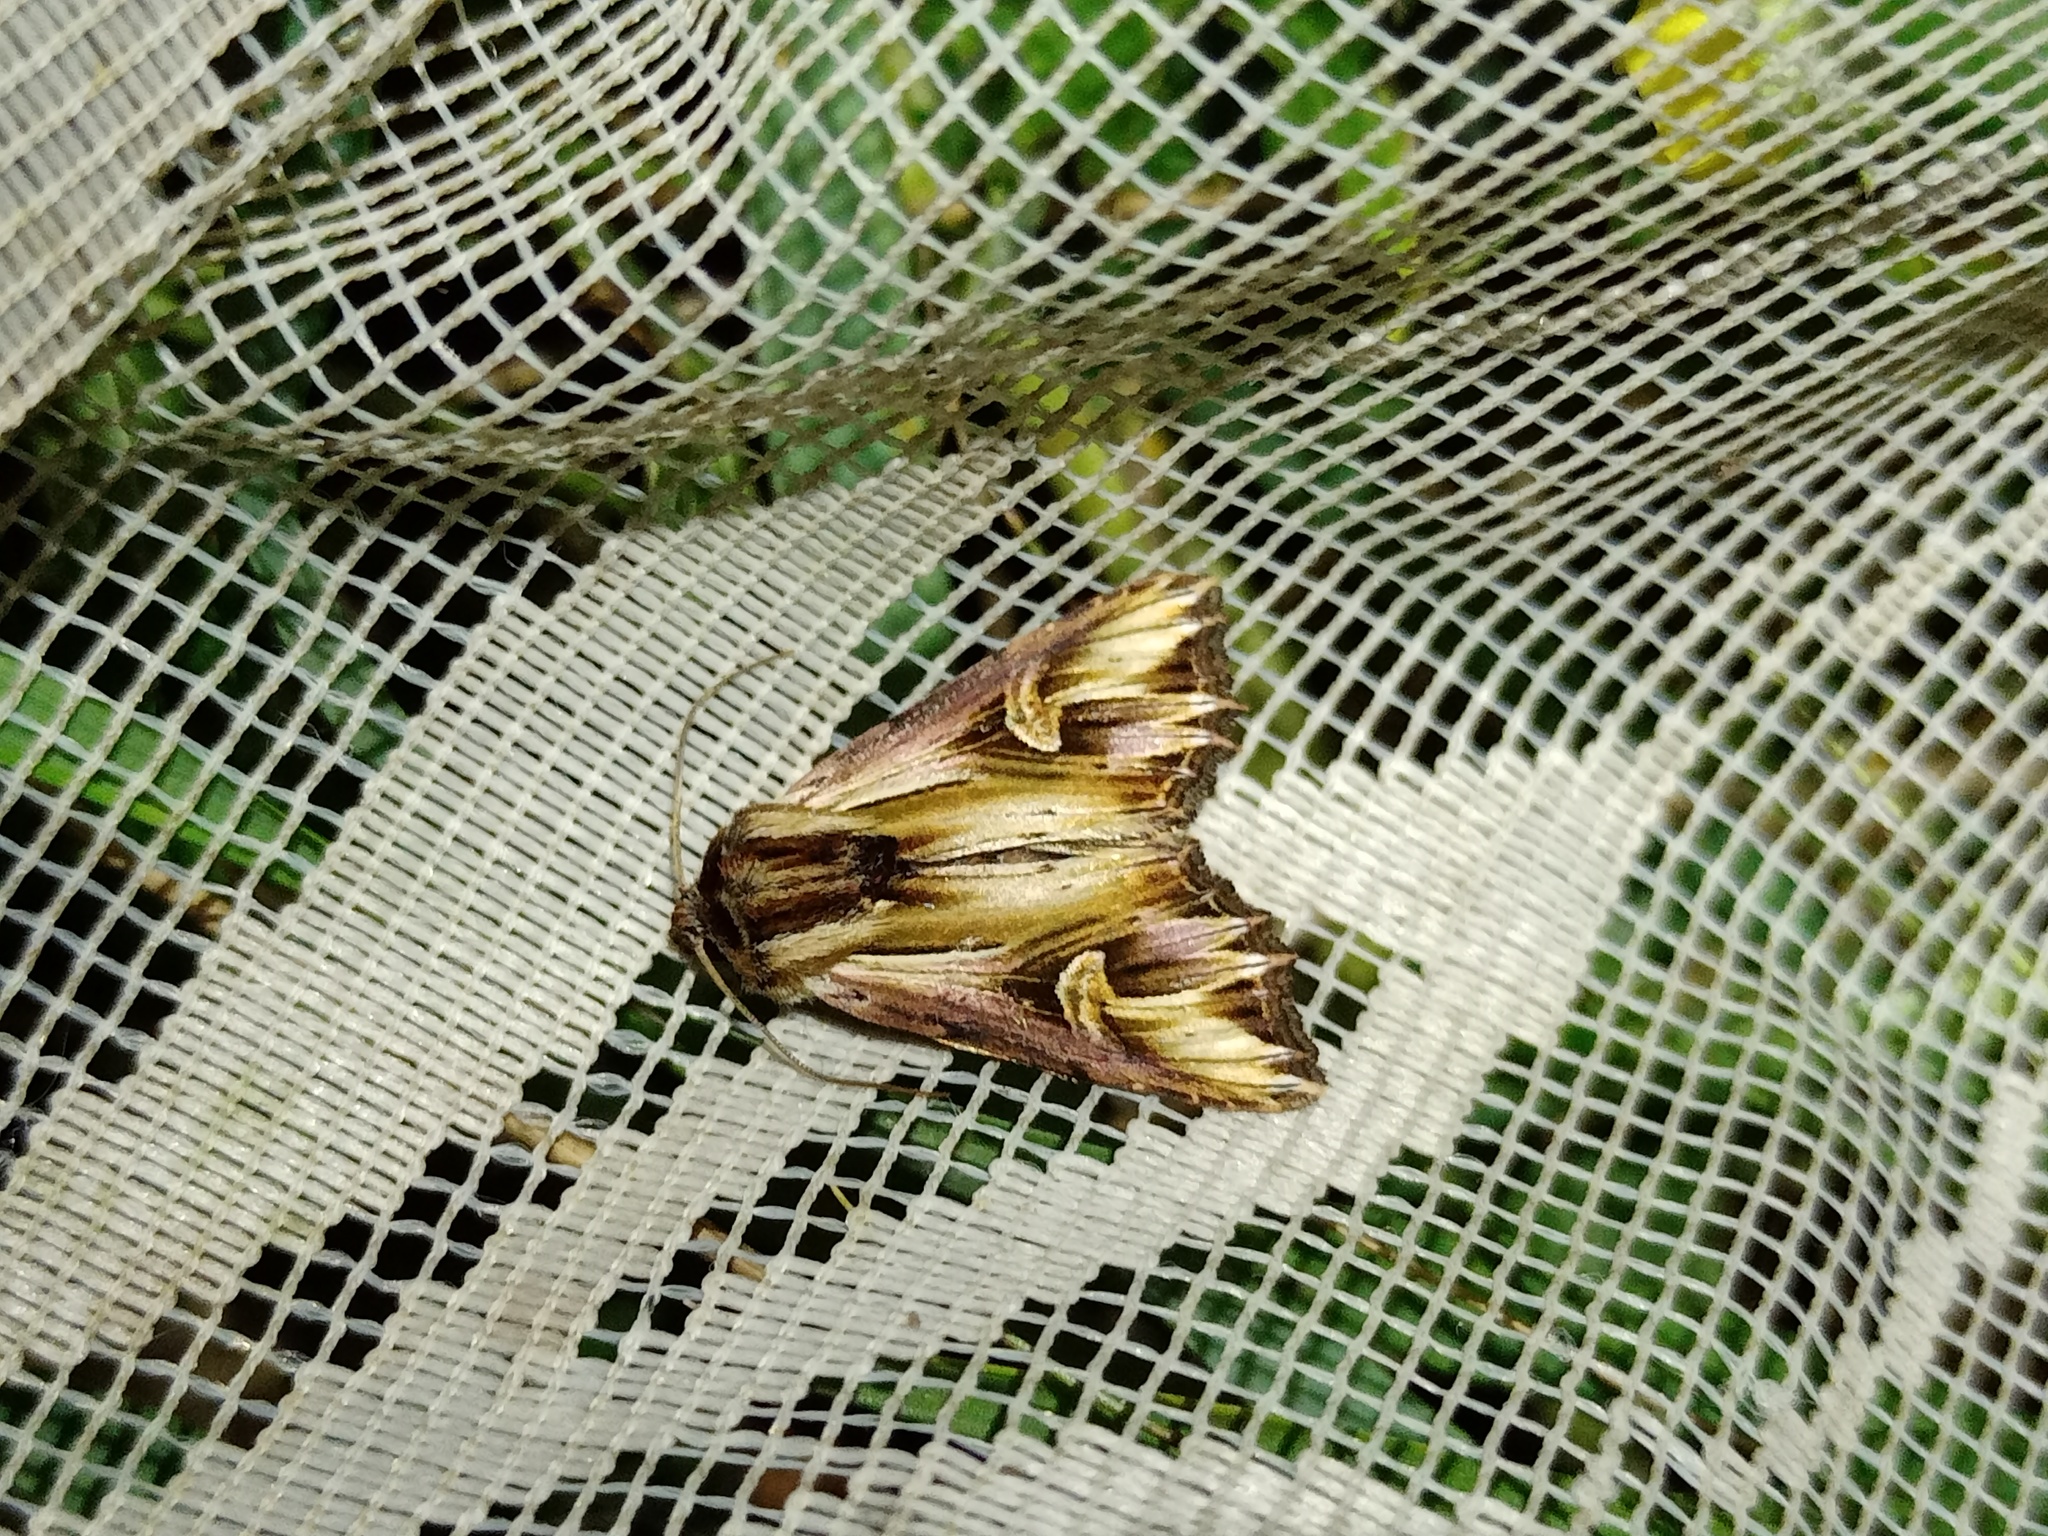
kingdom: Animalia
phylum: Arthropoda
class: Insecta
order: Lepidoptera
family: Noctuidae
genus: Actinotia
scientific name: Actinotia polyodon
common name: Purple cloud
